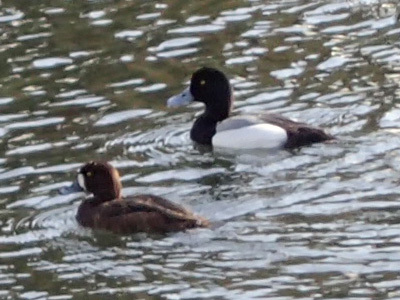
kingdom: Animalia
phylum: Chordata
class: Aves
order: Anseriformes
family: Anatidae
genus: Aythya
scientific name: Aythya marila
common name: Greater scaup
